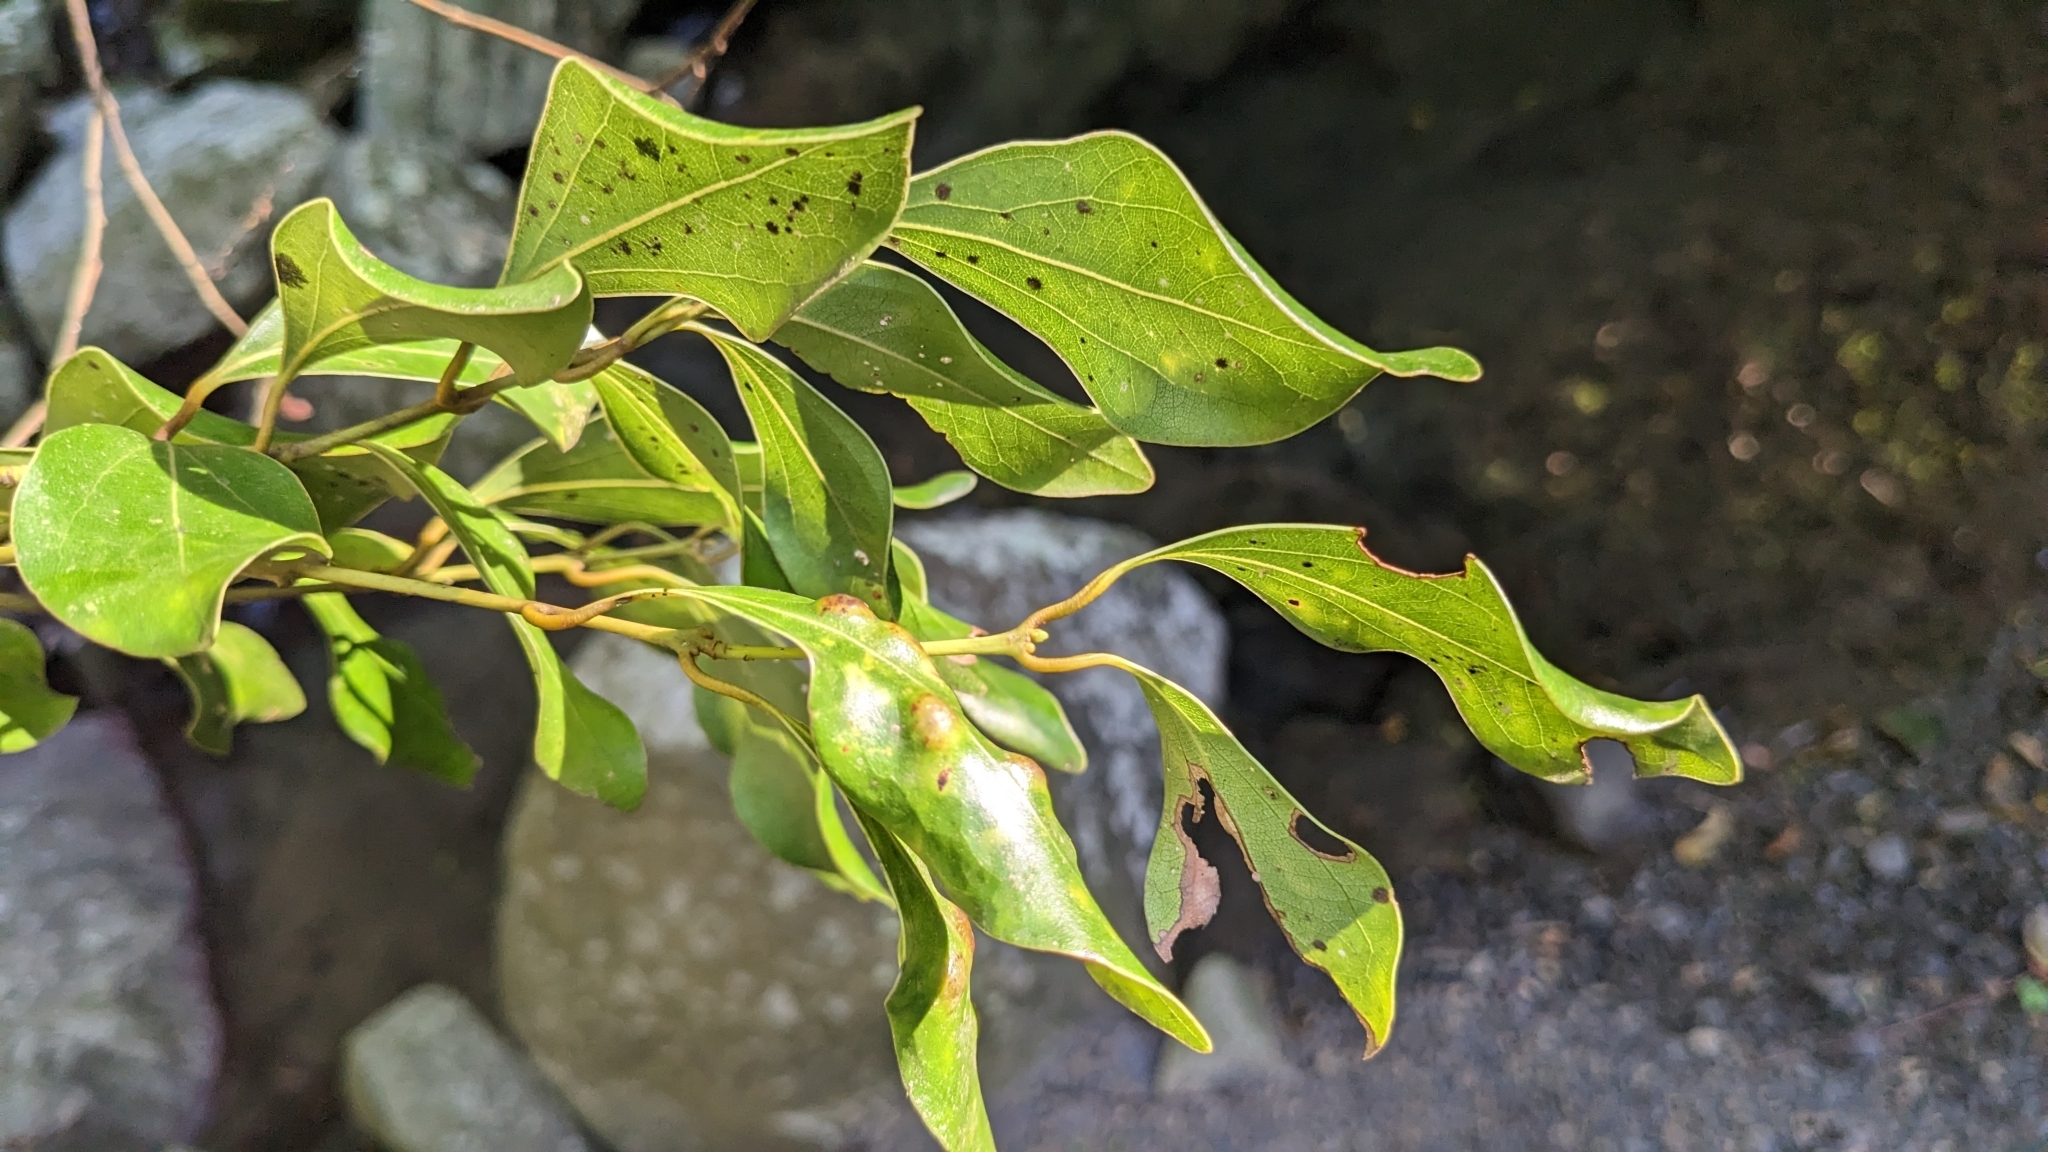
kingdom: Plantae
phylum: Tracheophyta
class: Magnoliopsida
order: Laurales
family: Lauraceae
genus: Cinnamomum
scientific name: Cinnamomum reticulatum
